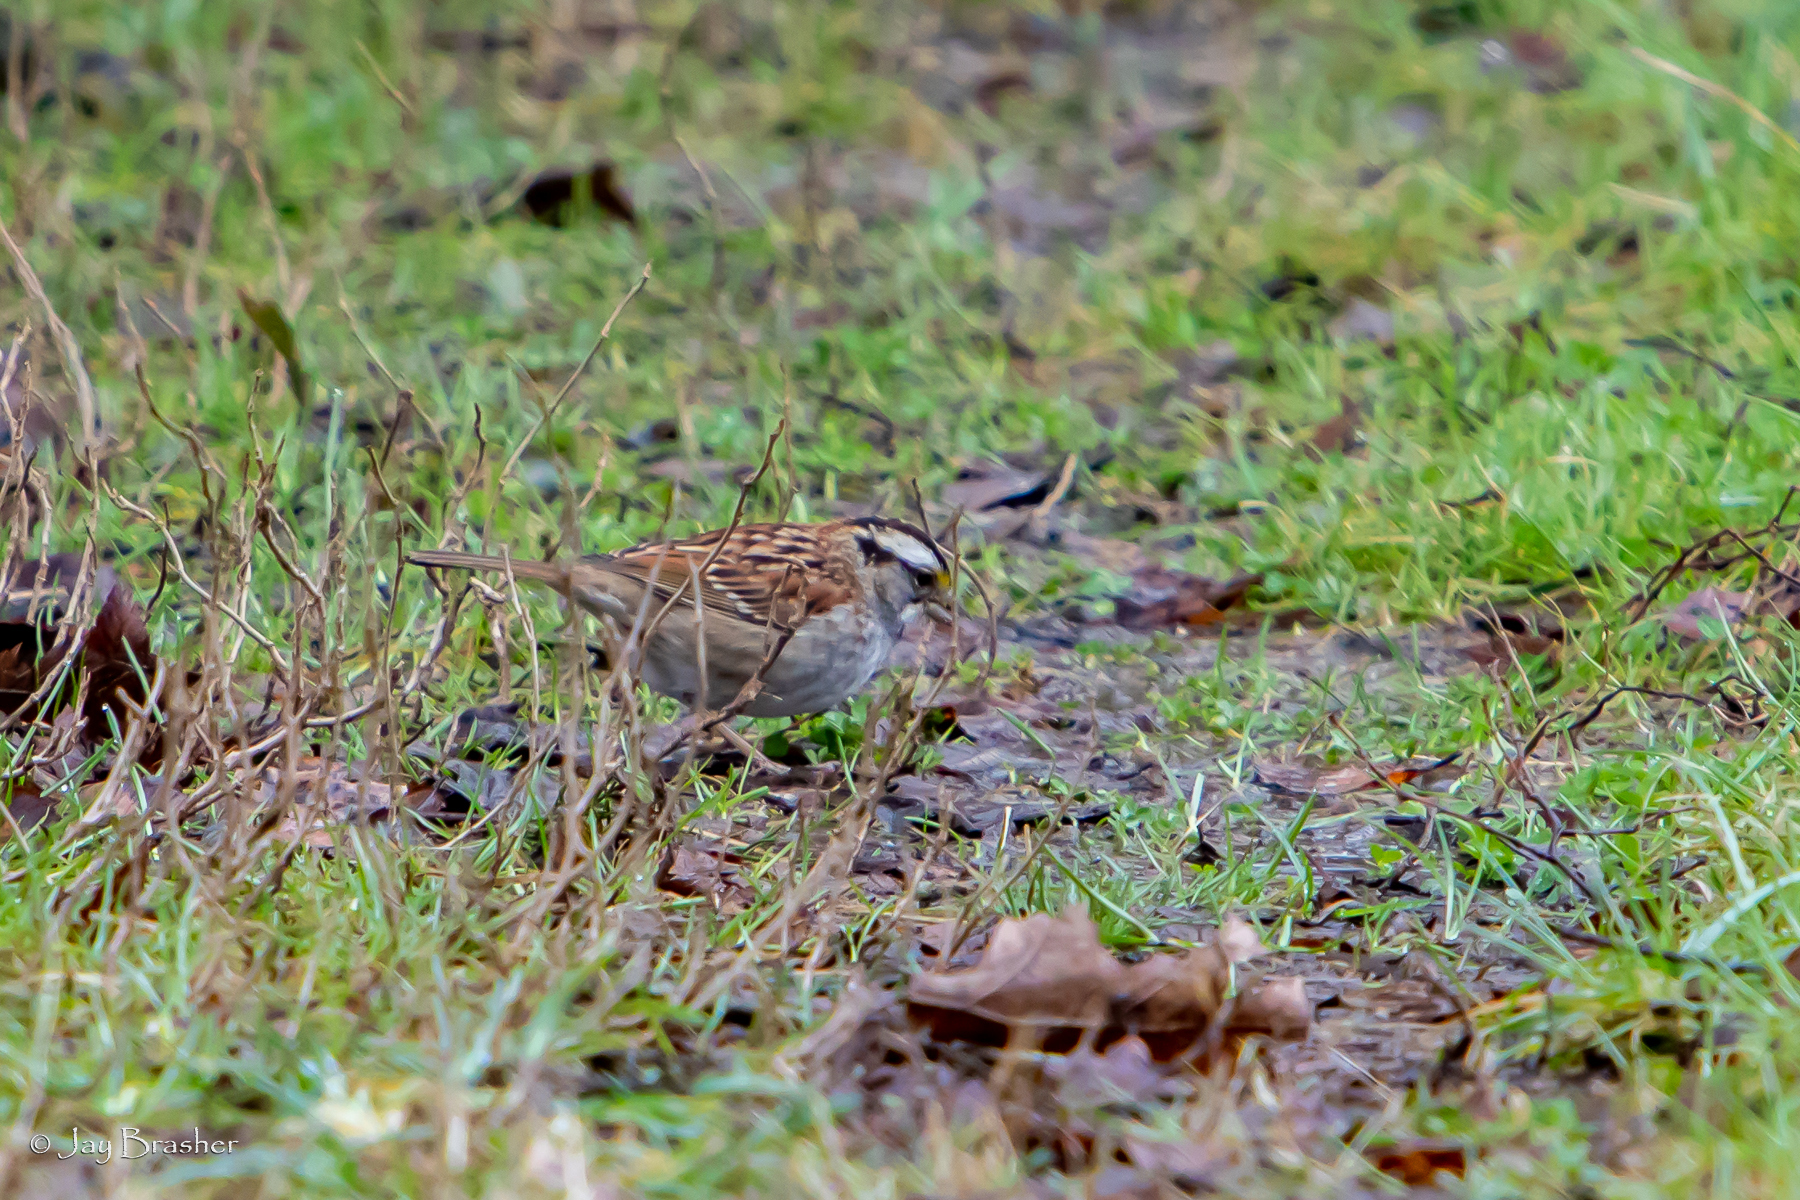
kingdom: Animalia
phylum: Chordata
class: Aves
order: Passeriformes
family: Passerellidae
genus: Zonotrichia
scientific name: Zonotrichia albicollis
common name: White-throated sparrow
